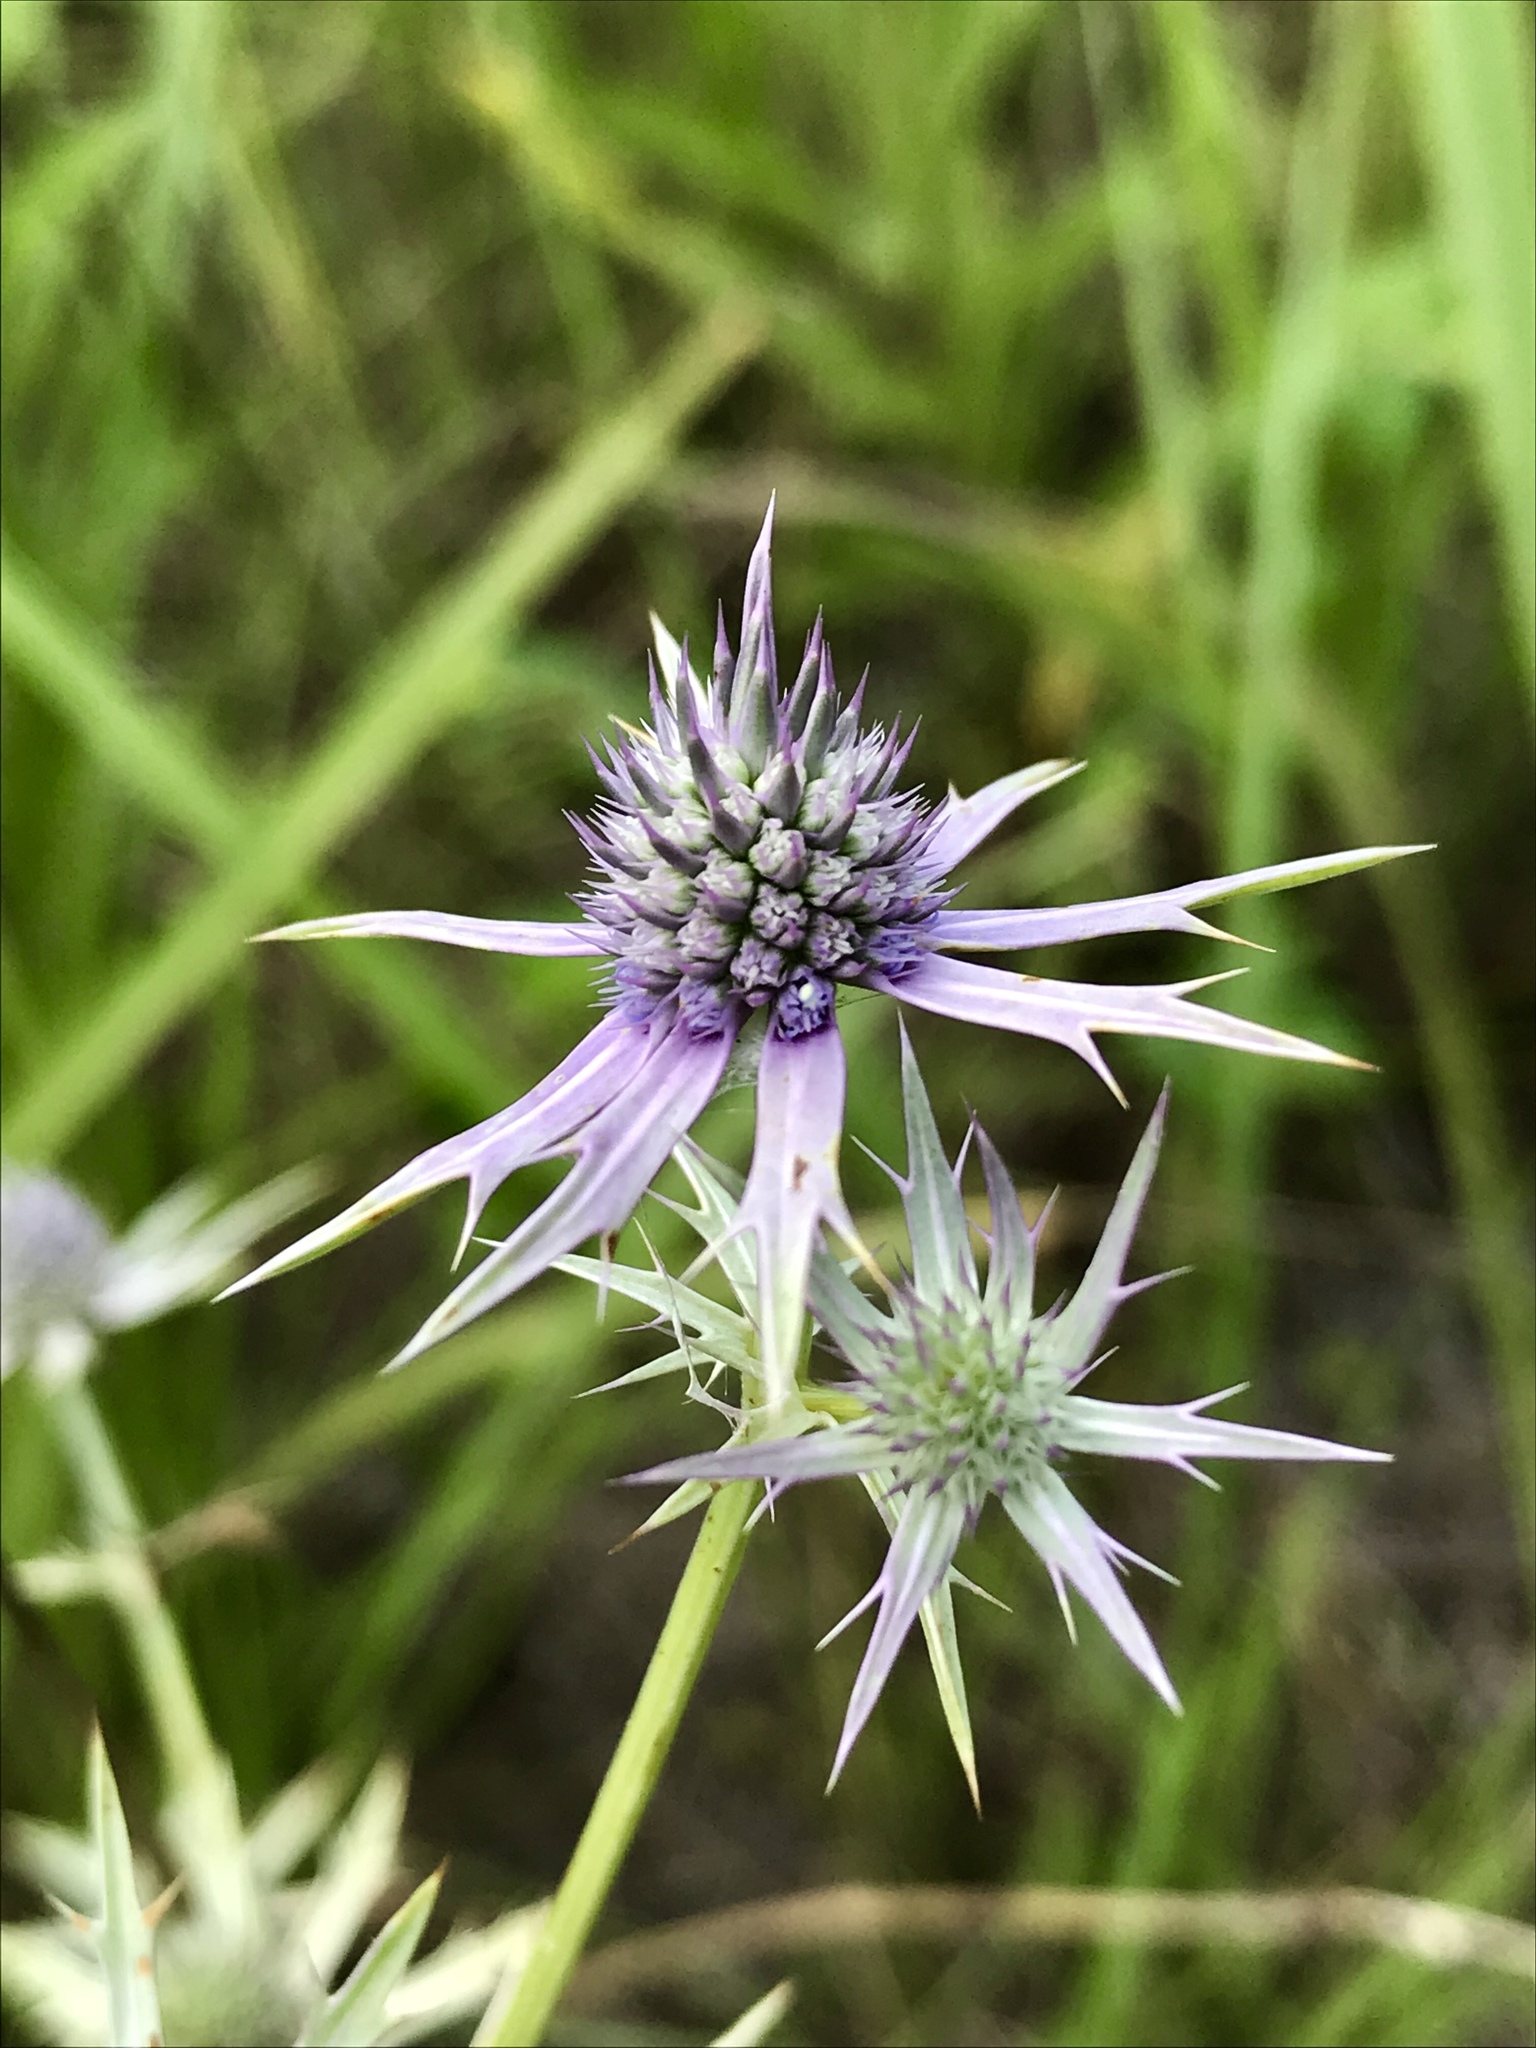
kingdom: Plantae
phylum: Tracheophyta
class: Magnoliopsida
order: Apiales
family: Apiaceae
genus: Eryngium
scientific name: Eryngium hookeri
